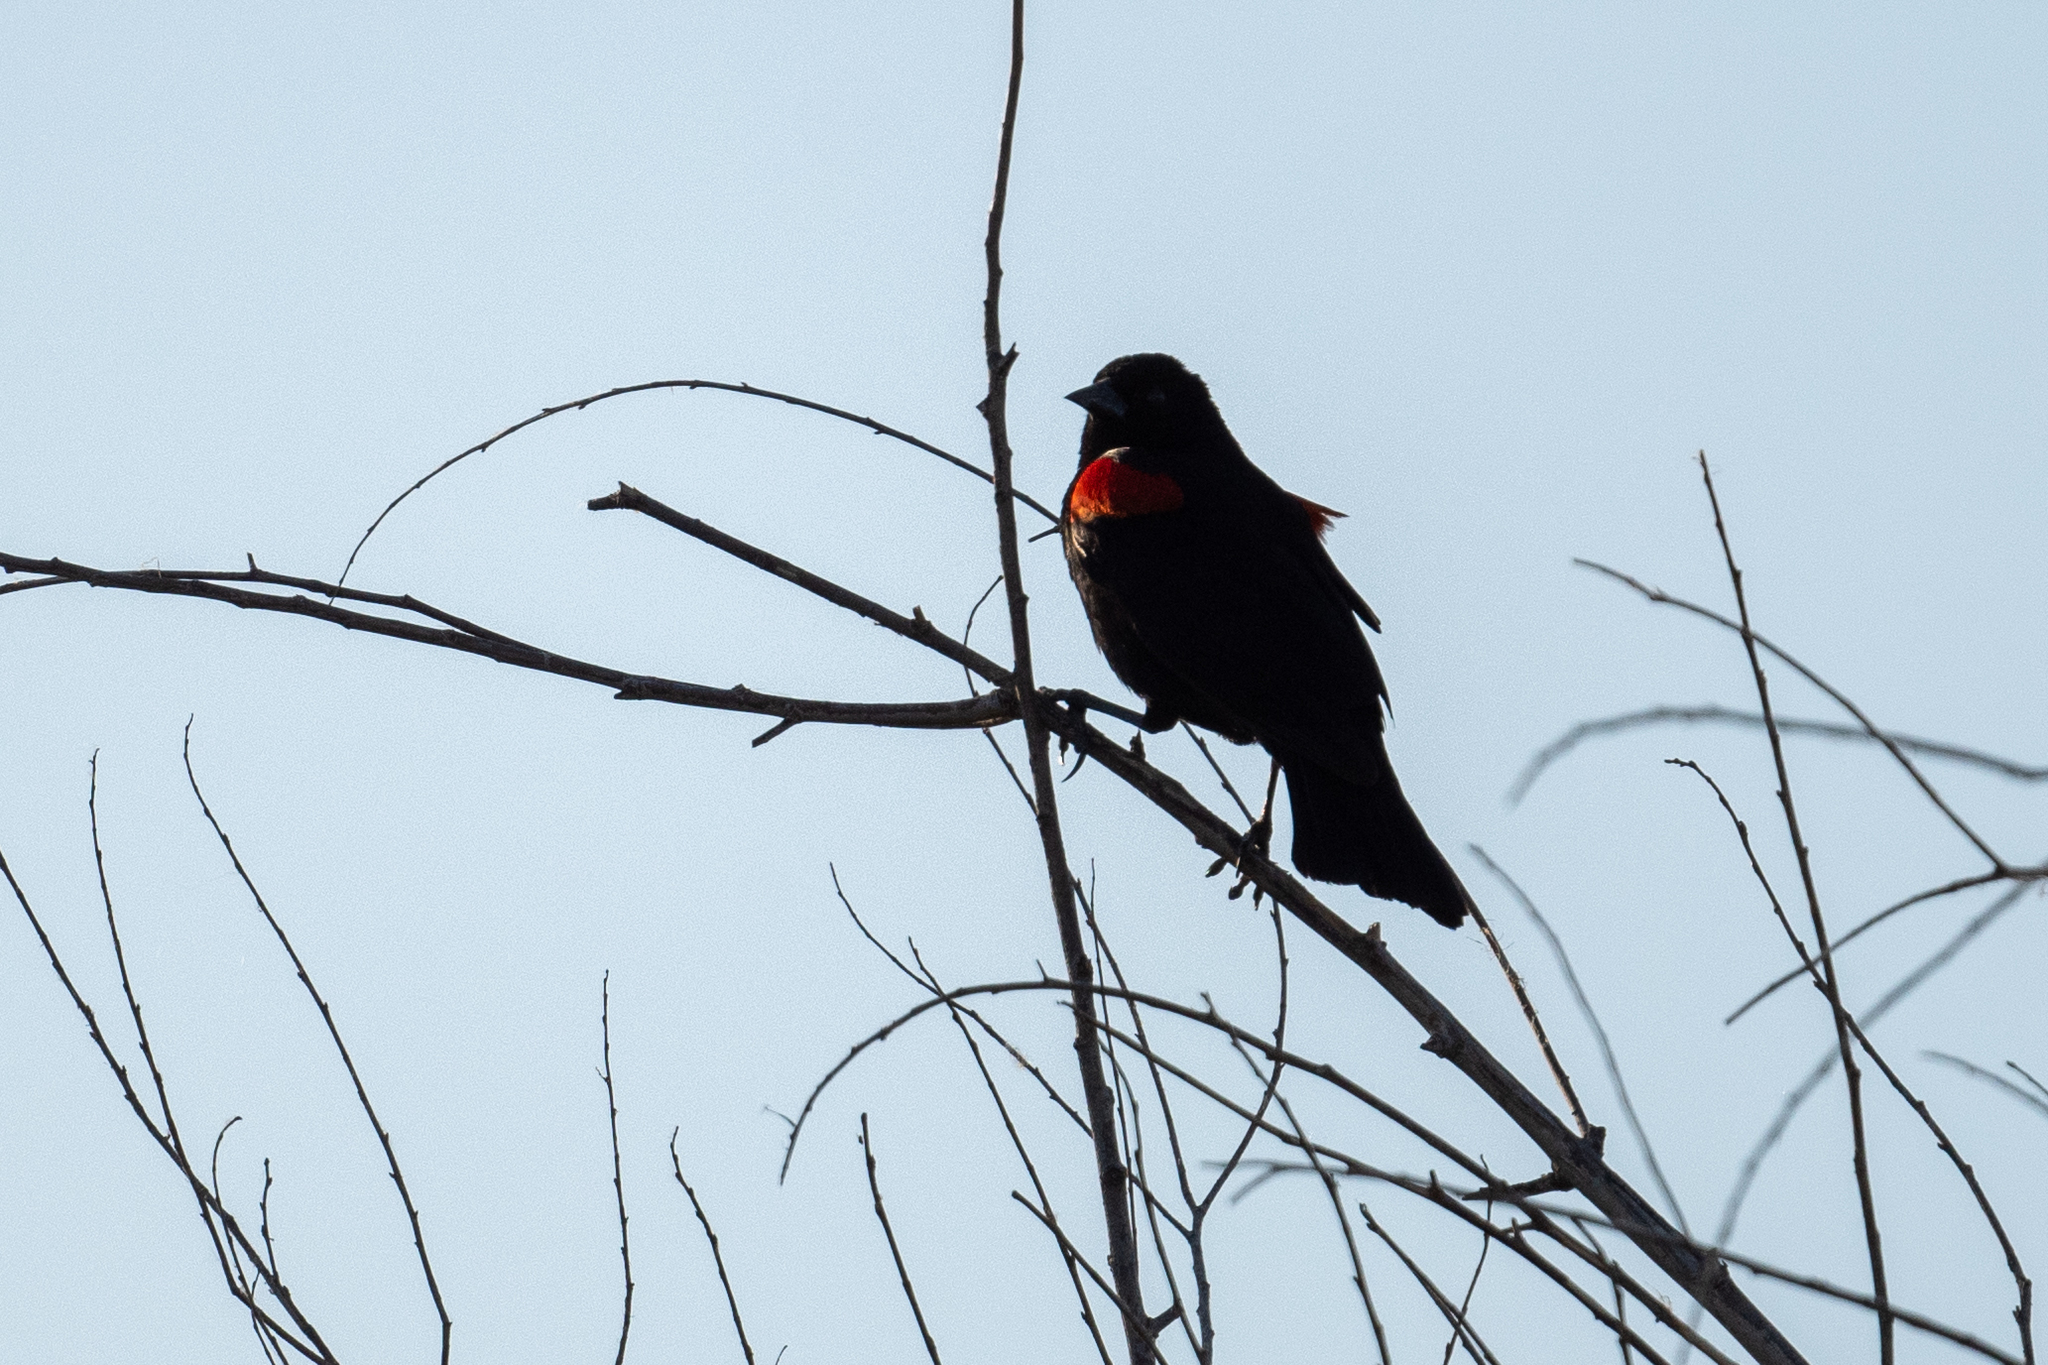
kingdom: Animalia
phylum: Chordata
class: Aves
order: Passeriformes
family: Icteridae
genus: Agelaius
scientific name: Agelaius phoeniceus
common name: Red-winged blackbird
